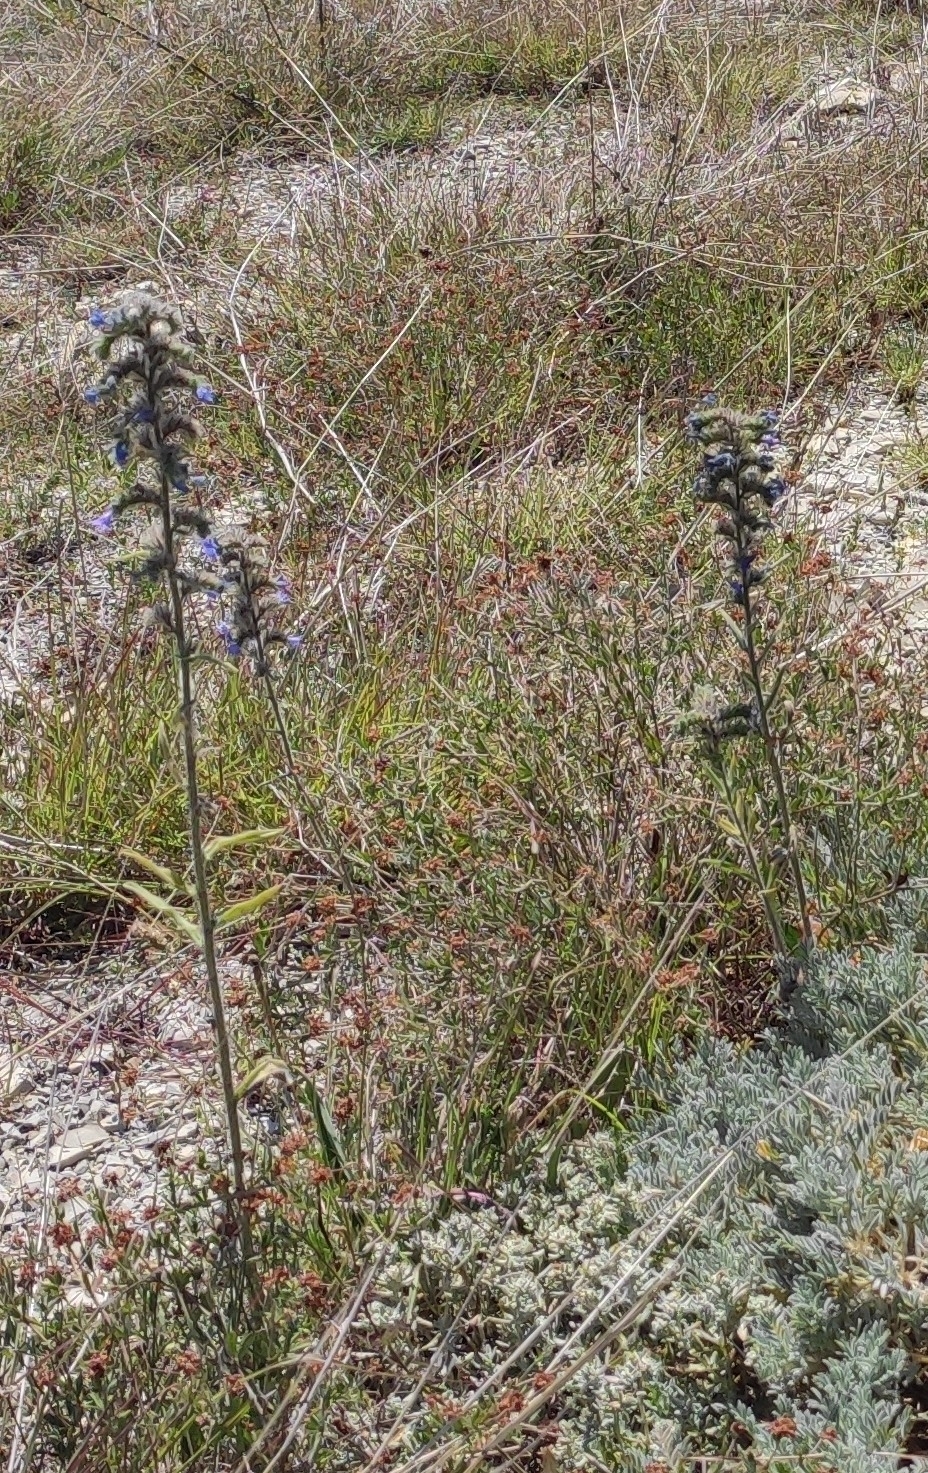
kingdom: Plantae
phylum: Tracheophyta
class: Magnoliopsida
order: Boraginales
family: Boraginaceae
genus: Echium
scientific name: Echium vulgare
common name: Common viper's bugloss
